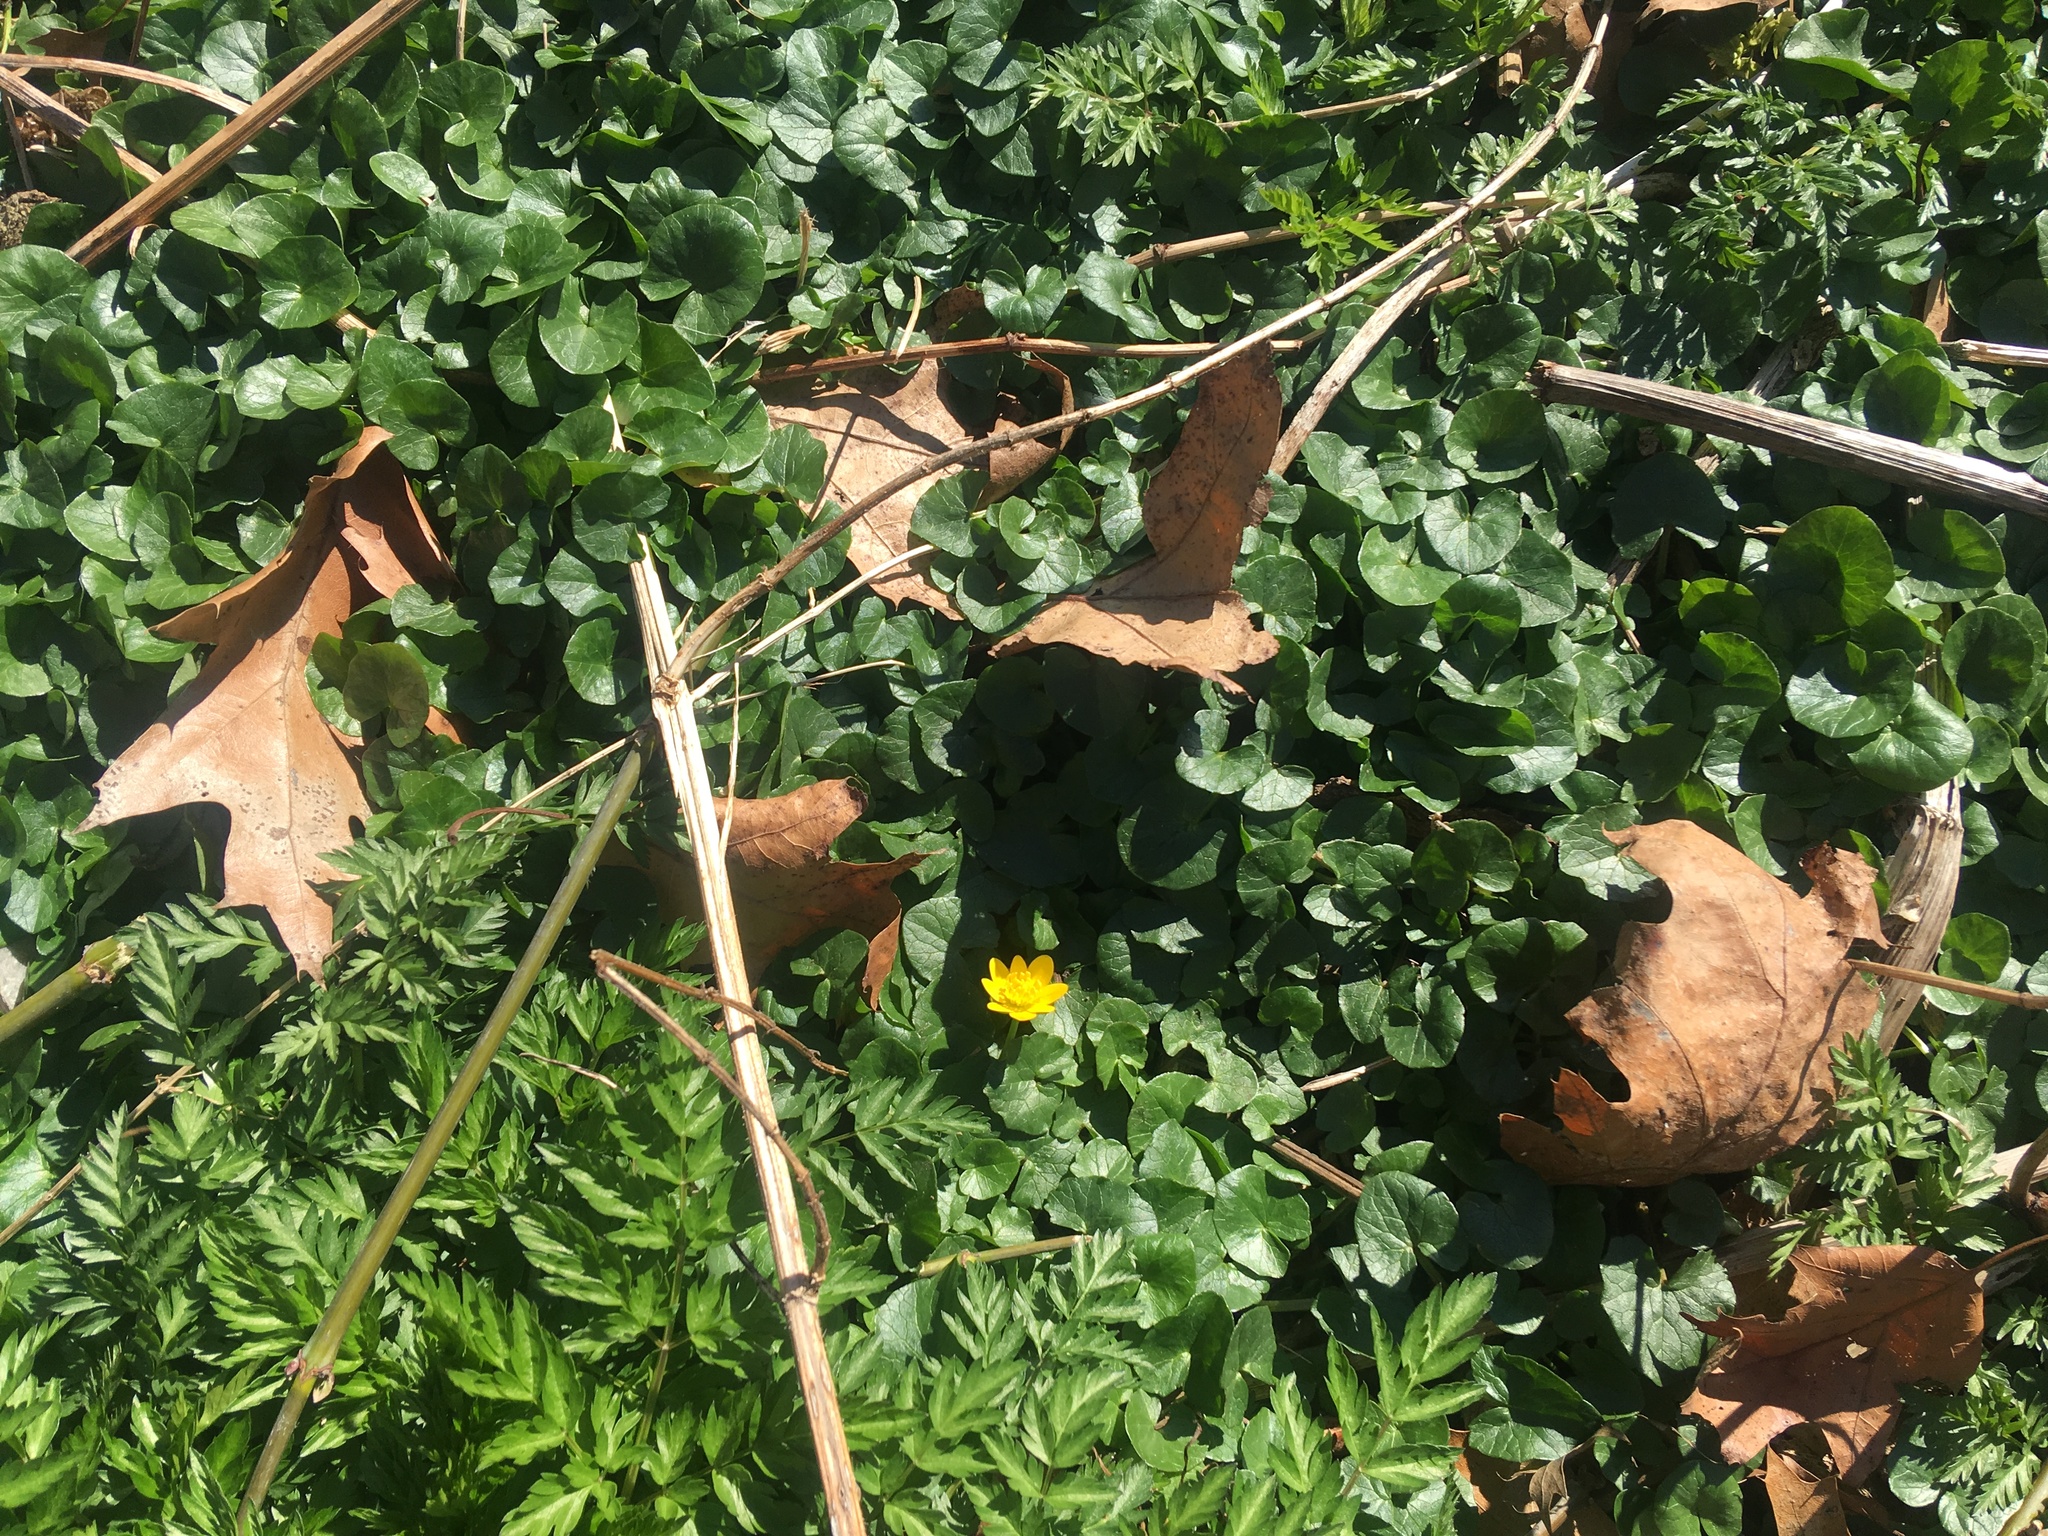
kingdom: Plantae
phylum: Tracheophyta
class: Magnoliopsida
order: Ranunculales
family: Ranunculaceae
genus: Ficaria
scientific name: Ficaria verna
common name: Lesser celandine
